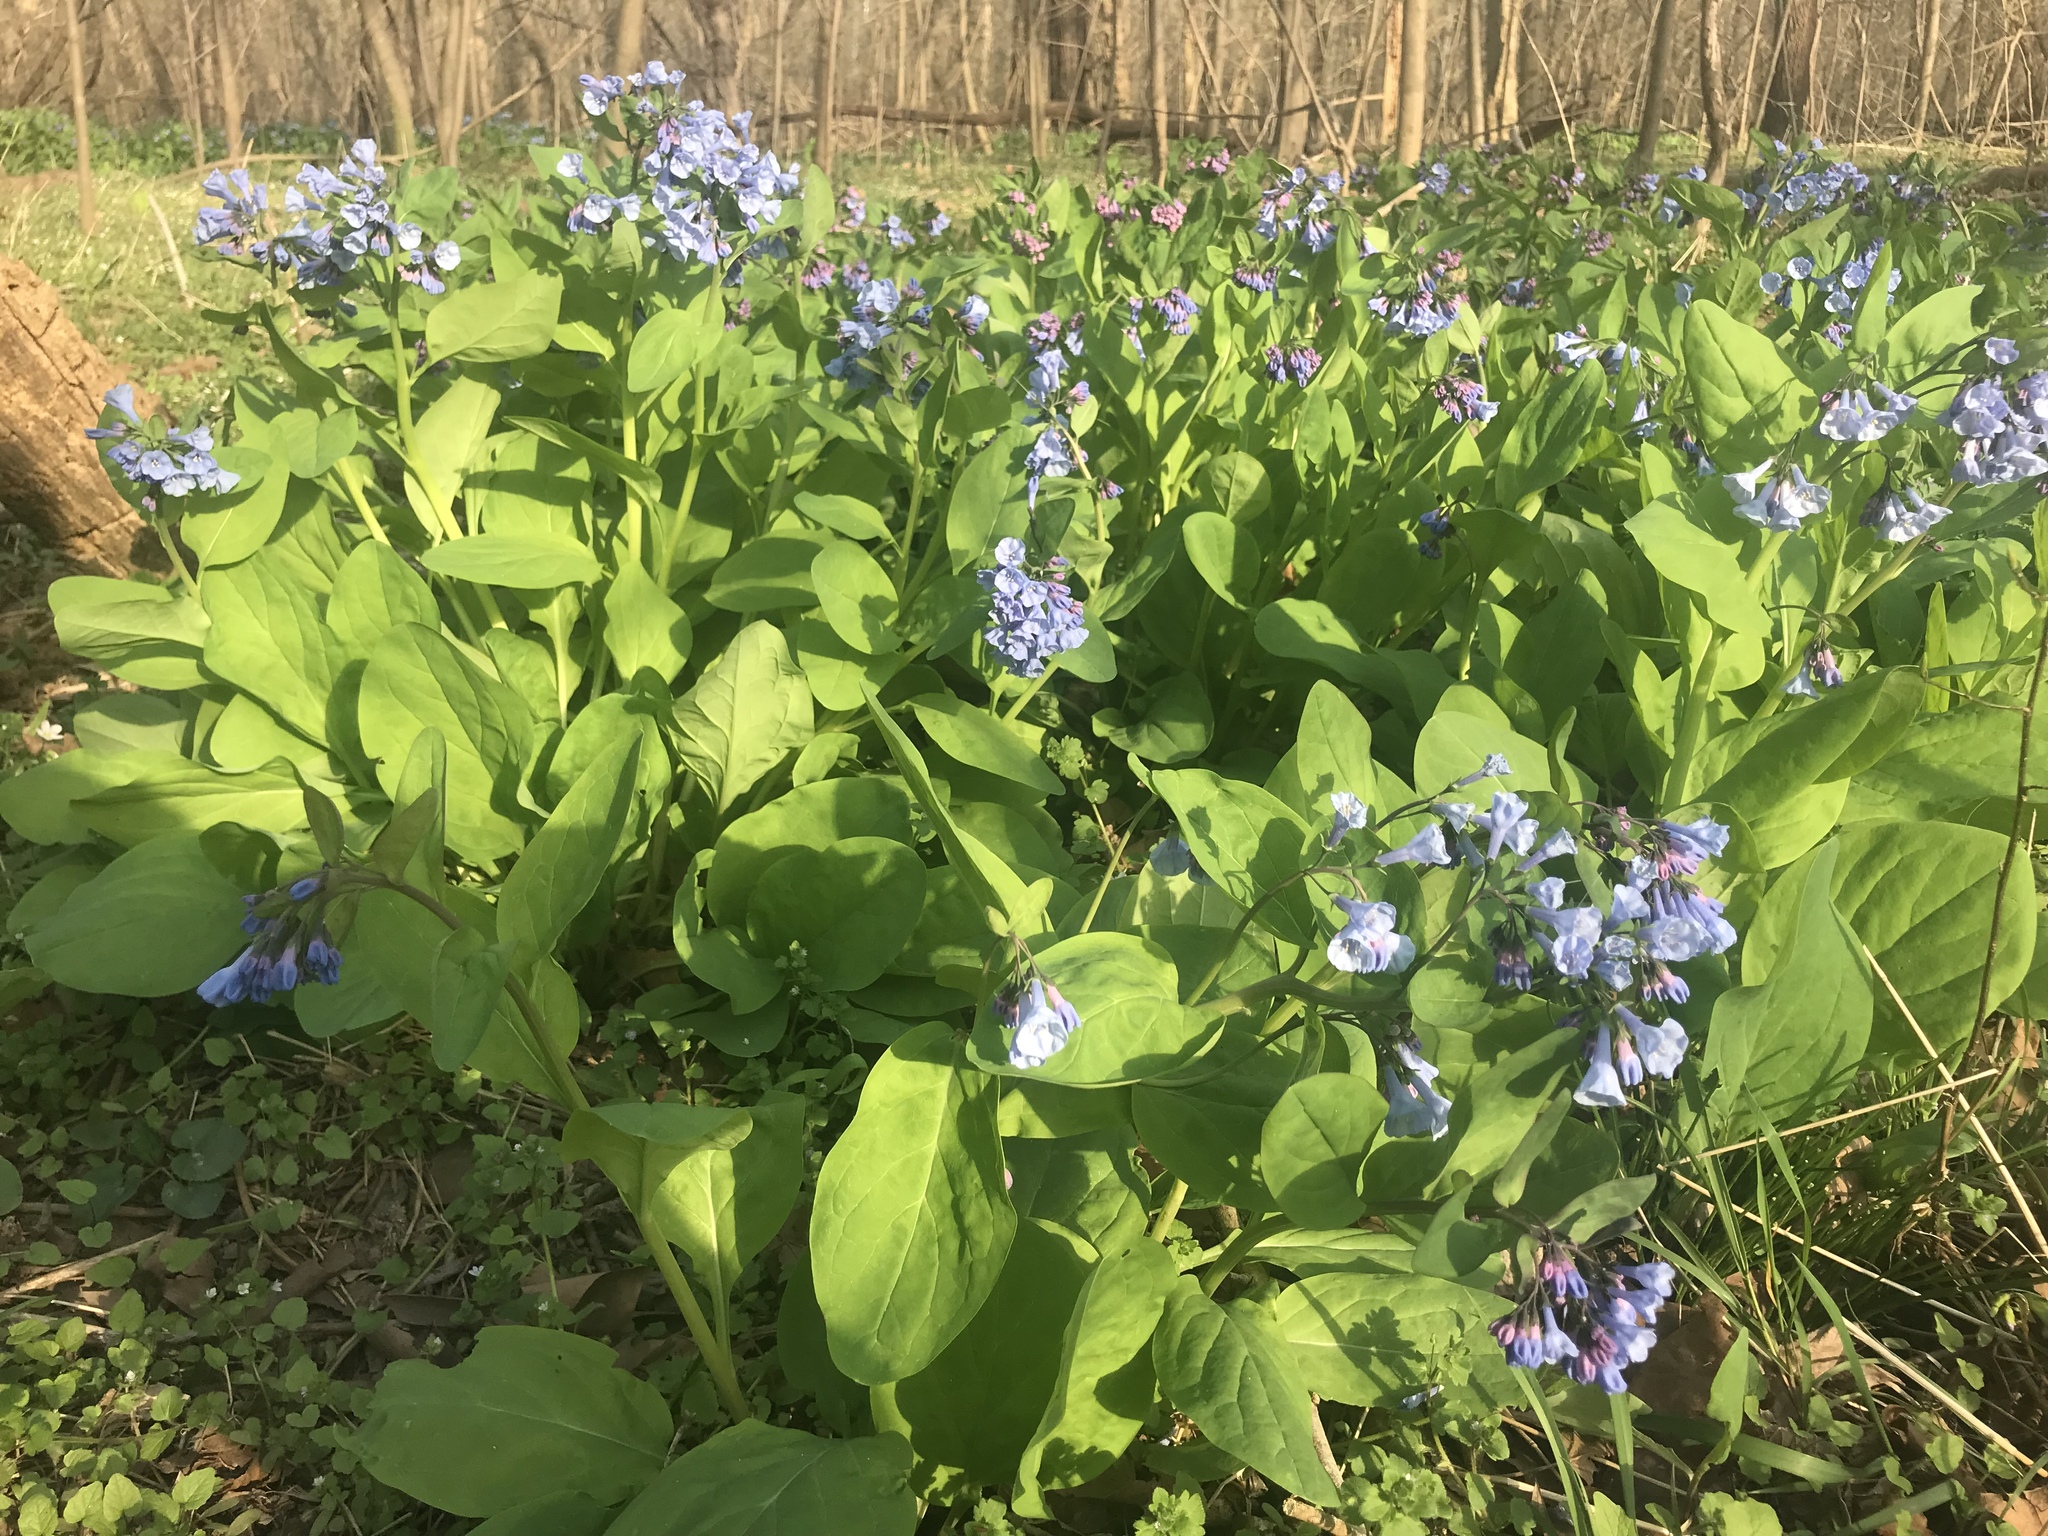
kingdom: Plantae
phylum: Tracheophyta
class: Magnoliopsida
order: Boraginales
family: Boraginaceae
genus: Mertensia
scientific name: Mertensia virginica
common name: Virginia bluebells
